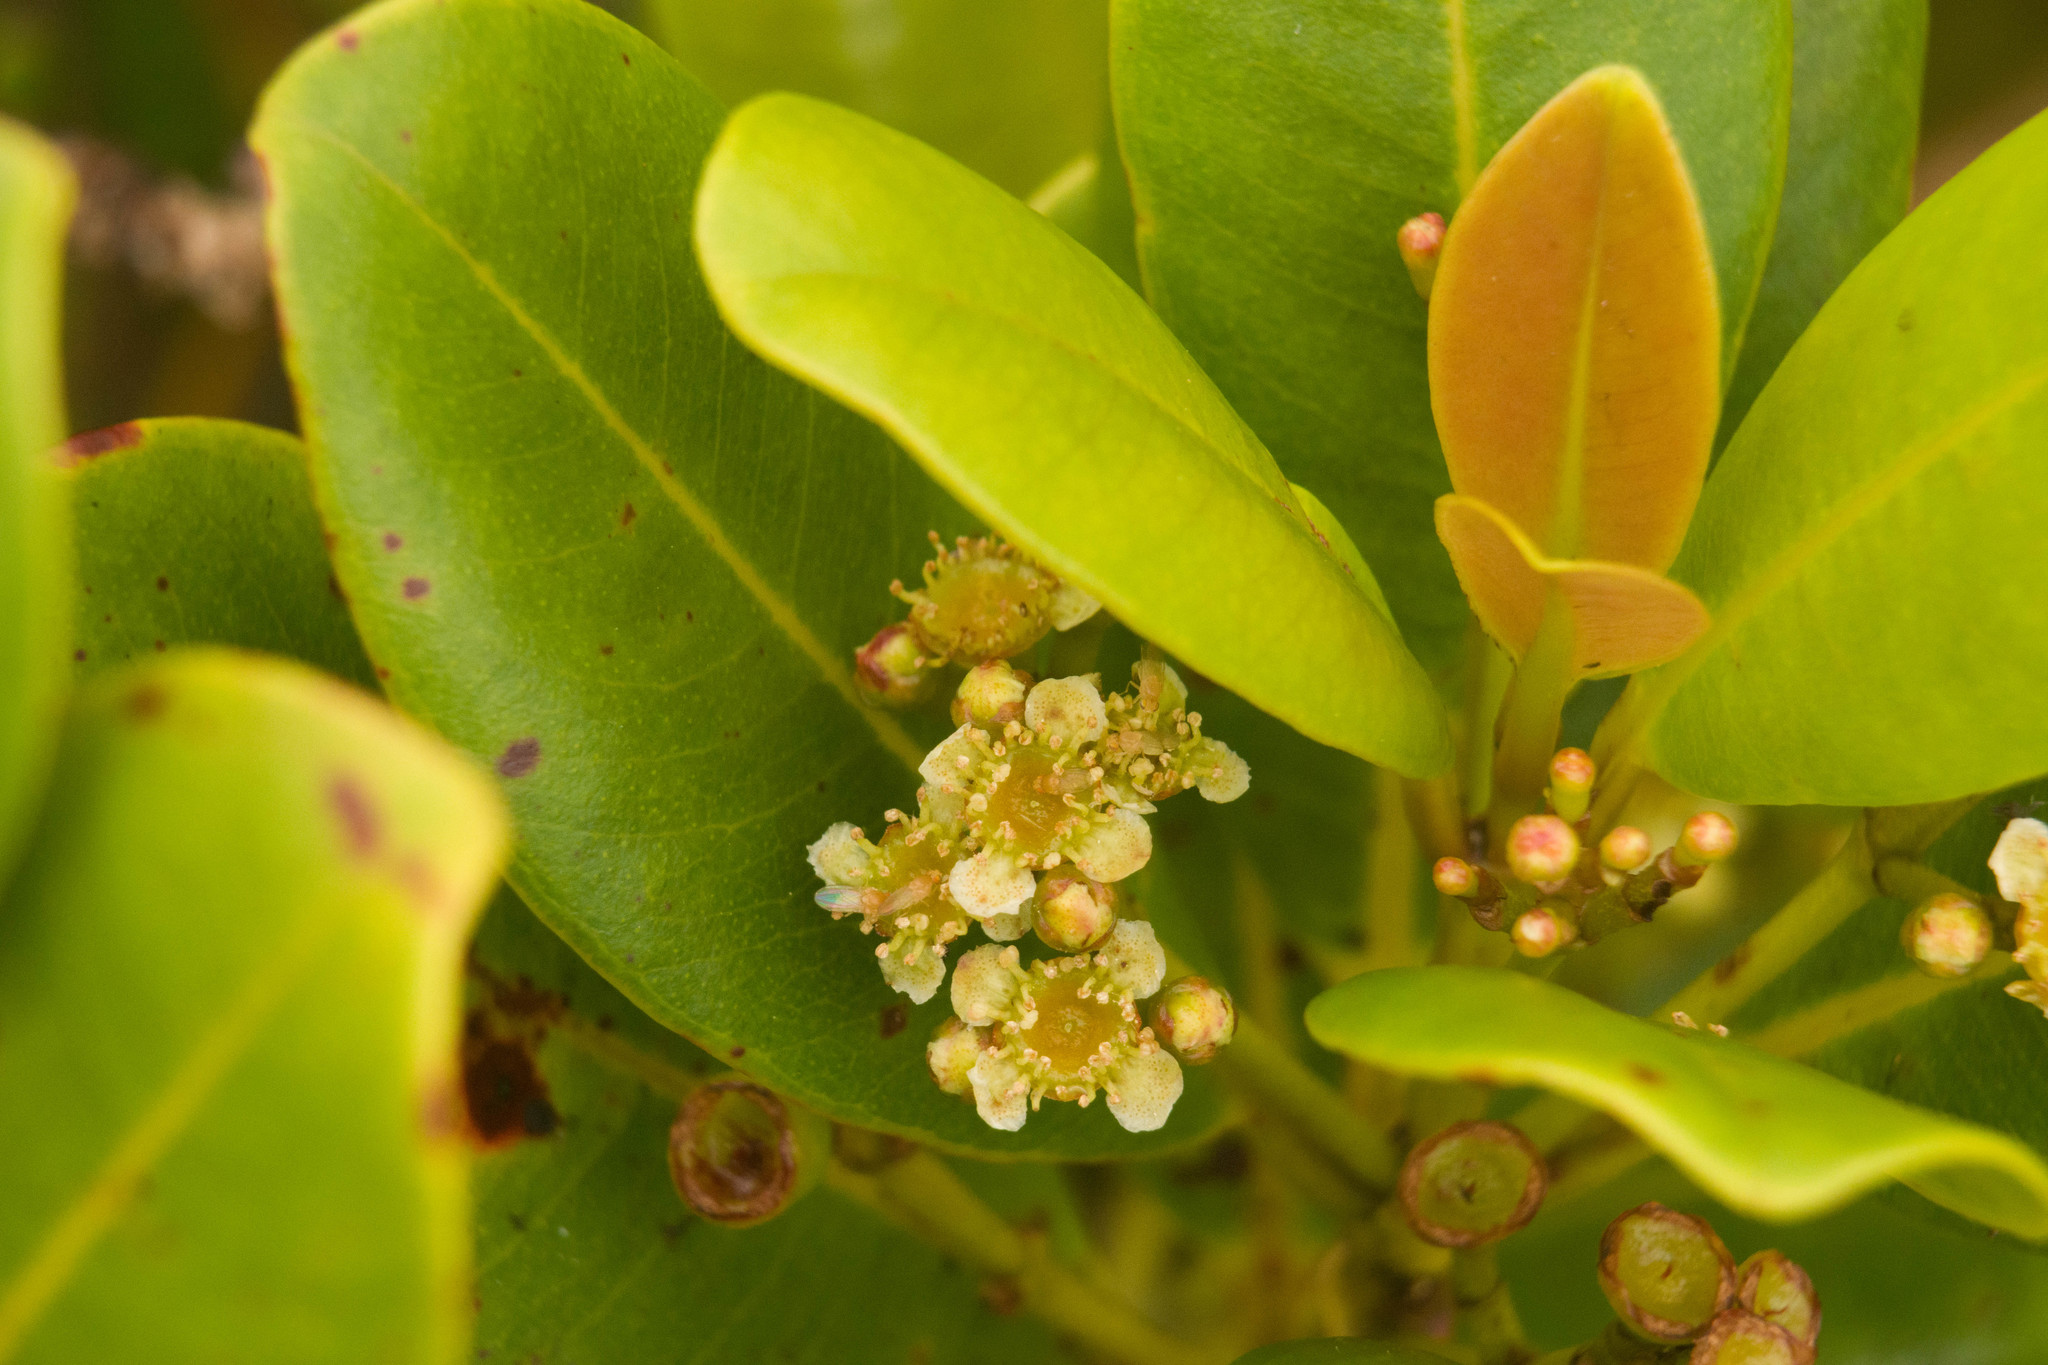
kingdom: Plantae
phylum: Tracheophyta
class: Magnoliopsida
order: Myrtales
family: Myrtaceae
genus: Syzygium
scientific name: Syzygium sandwicense
